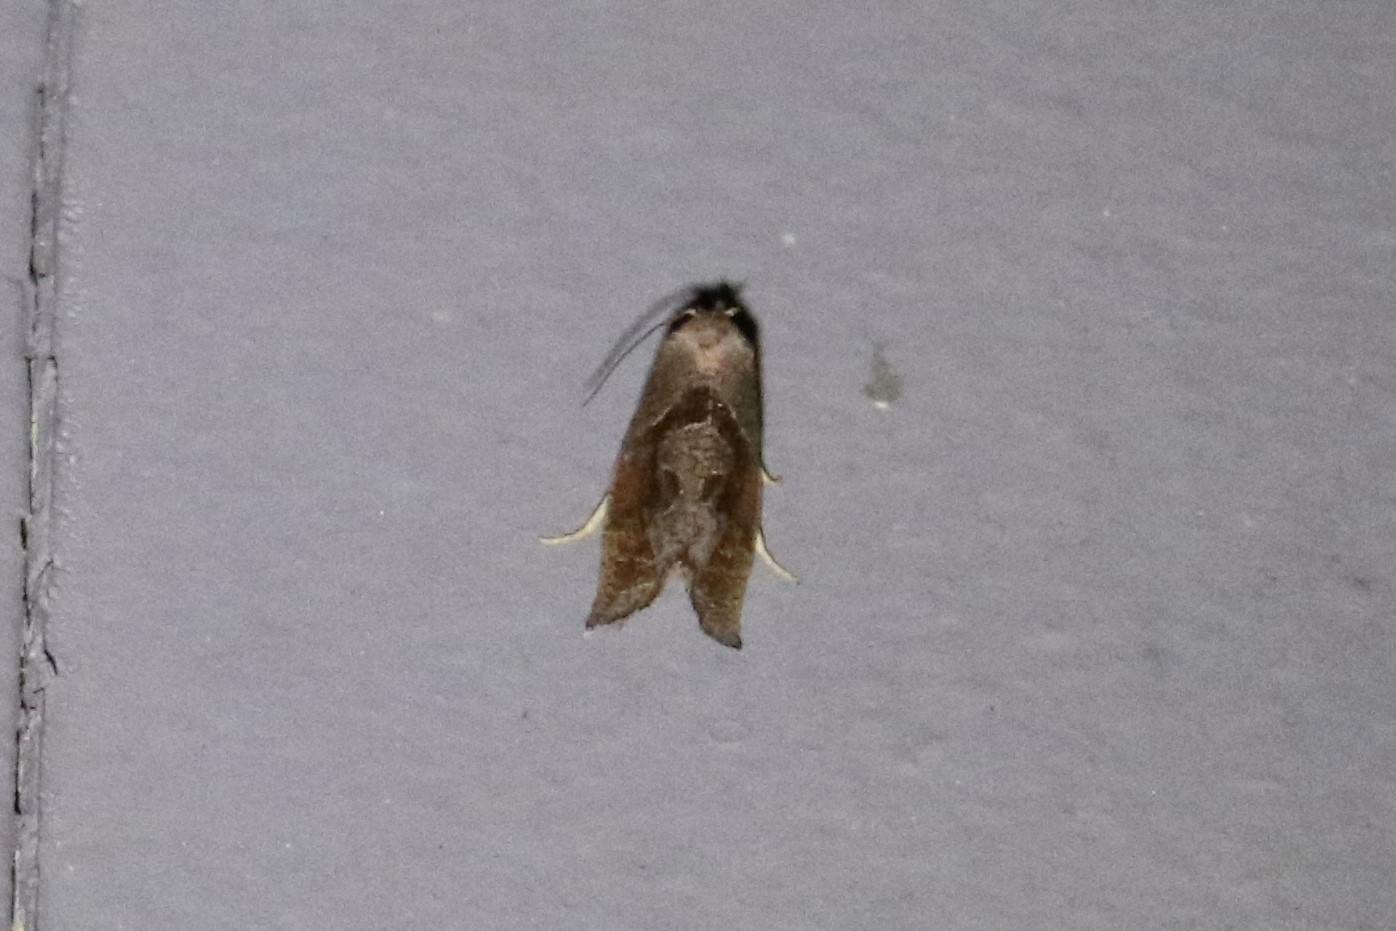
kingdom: Animalia
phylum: Arthropoda
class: Insecta
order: Lepidoptera
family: Tortricidae
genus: Pelochrista
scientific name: Pelochrista similiana
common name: Similar eucosma
